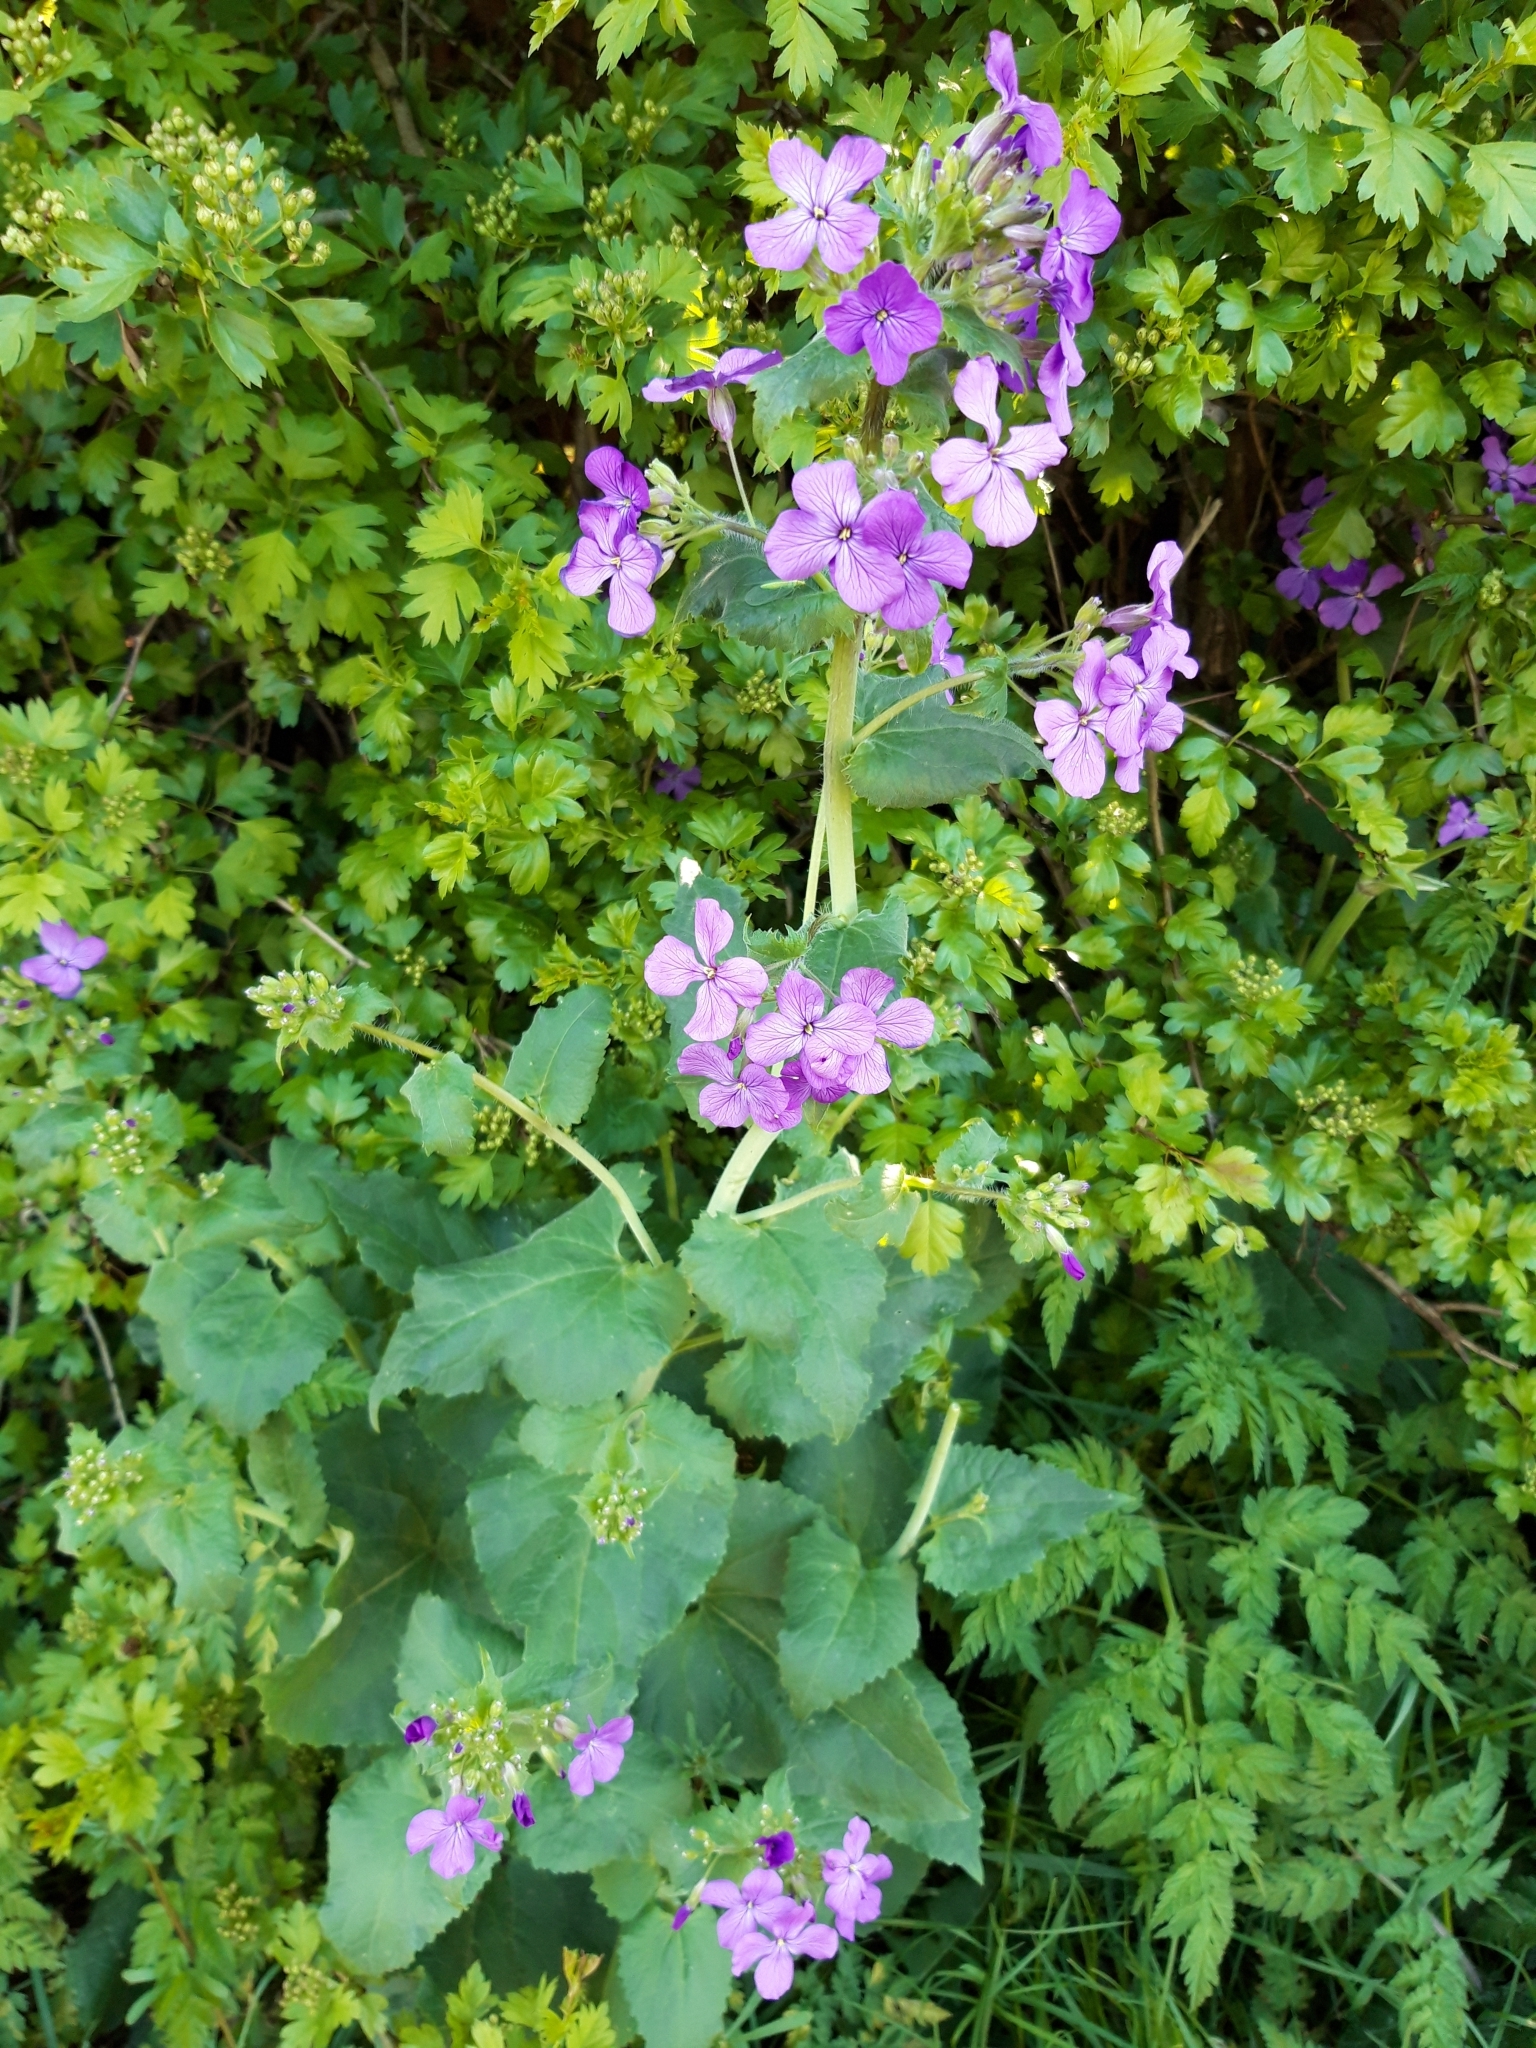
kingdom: Plantae
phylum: Tracheophyta
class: Magnoliopsida
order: Brassicales
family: Brassicaceae
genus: Lunaria
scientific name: Lunaria annua
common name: Honesty
